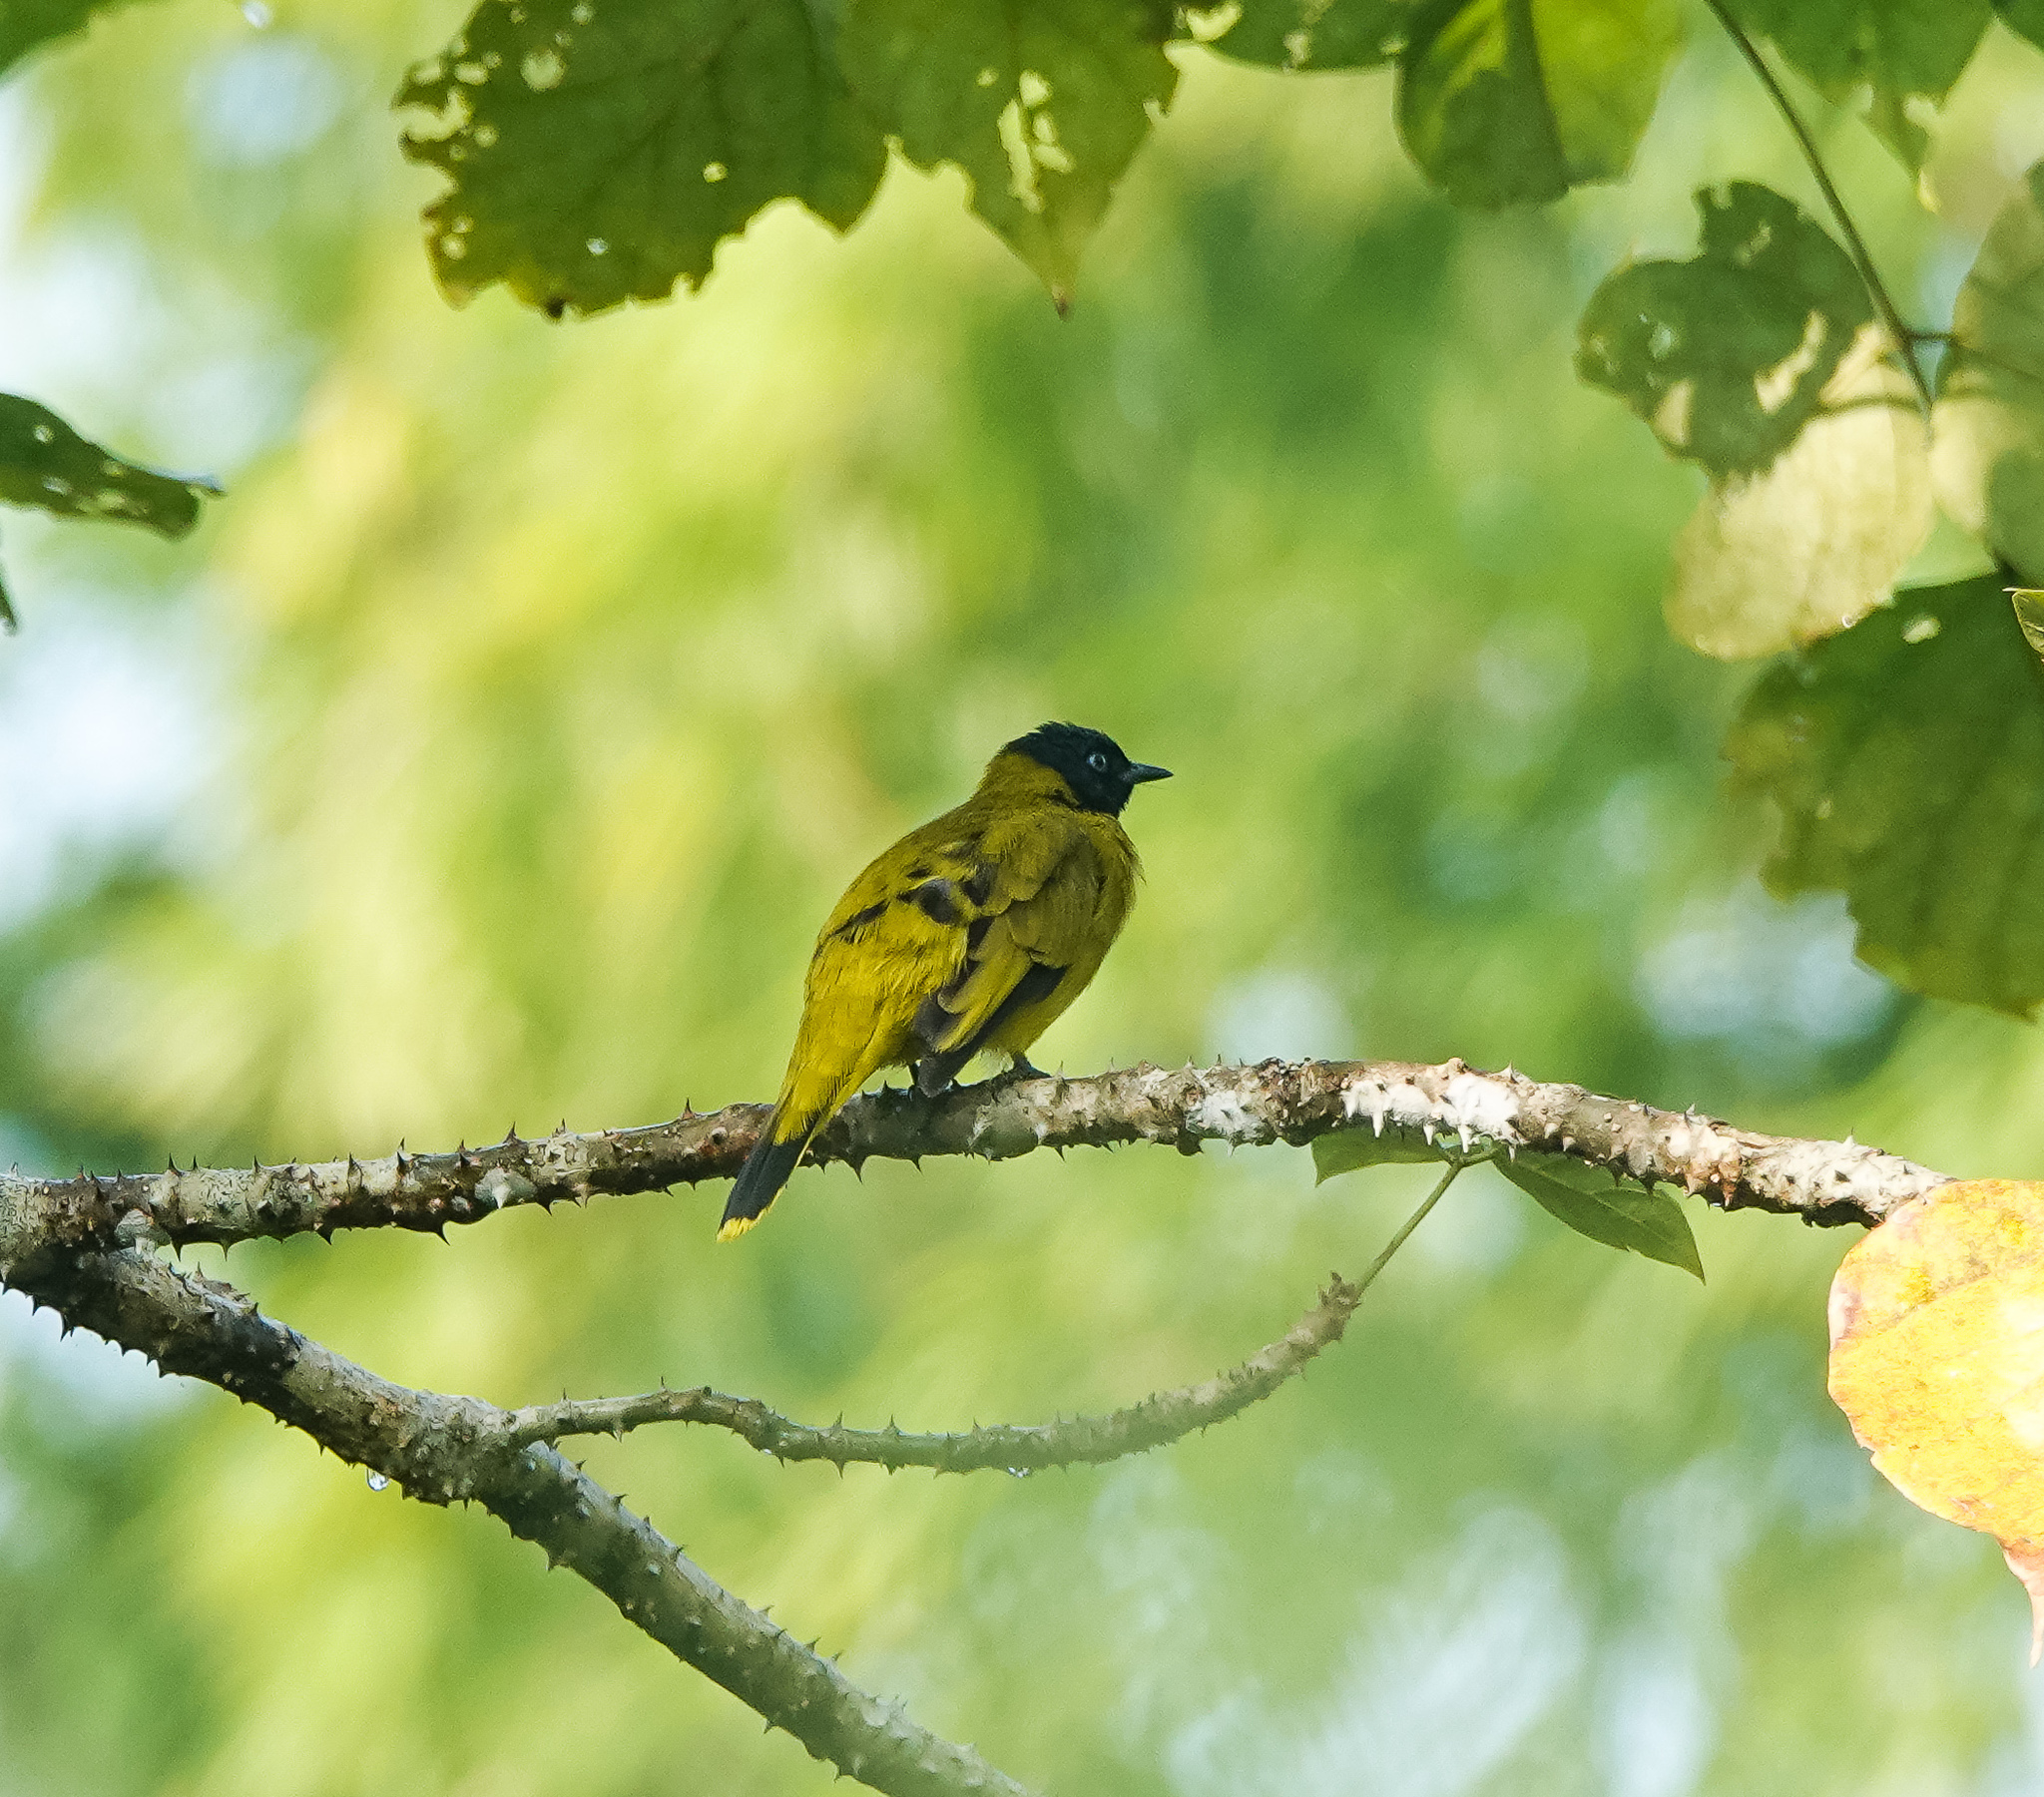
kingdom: Animalia
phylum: Chordata
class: Aves
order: Passeriformes
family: Pycnonotidae
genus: Microtarsus
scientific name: Microtarsus
